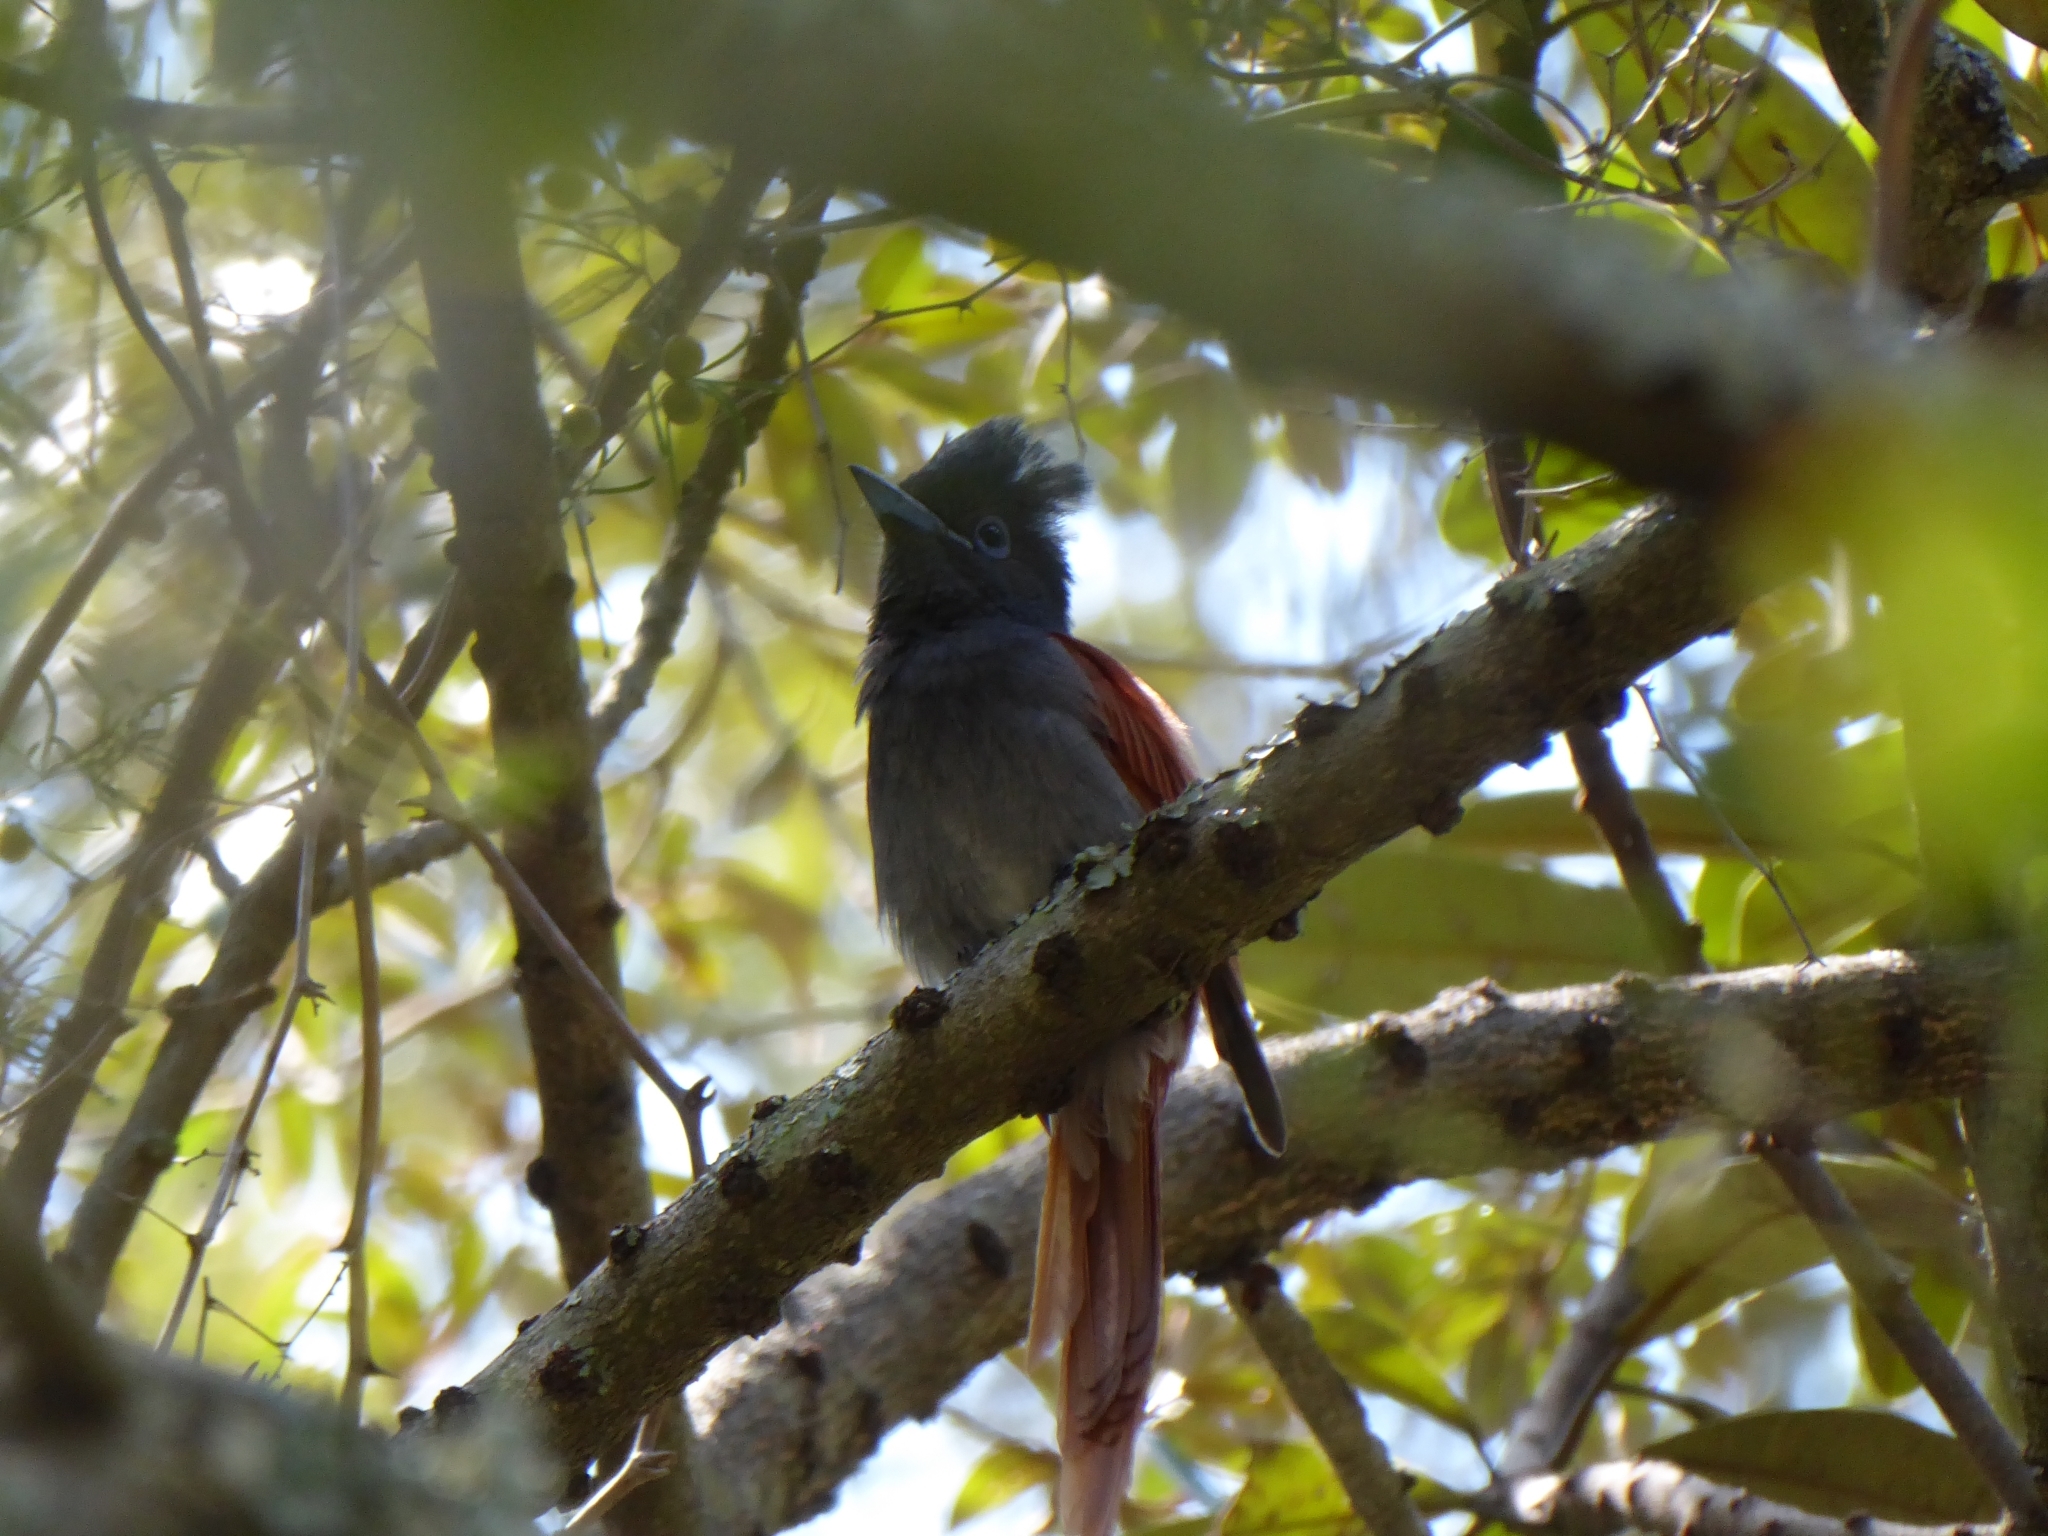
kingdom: Animalia
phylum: Chordata
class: Aves
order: Passeriformes
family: Monarchidae
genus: Terpsiphone
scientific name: Terpsiphone viridis
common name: African paradise flycatcher
